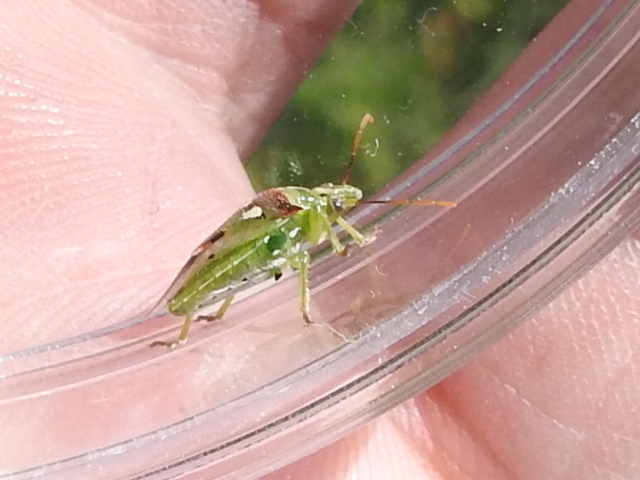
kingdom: Animalia
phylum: Arthropoda
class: Insecta
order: Hemiptera
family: Pentatomidae
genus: Tylospilus
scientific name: Tylospilus acutissimus
